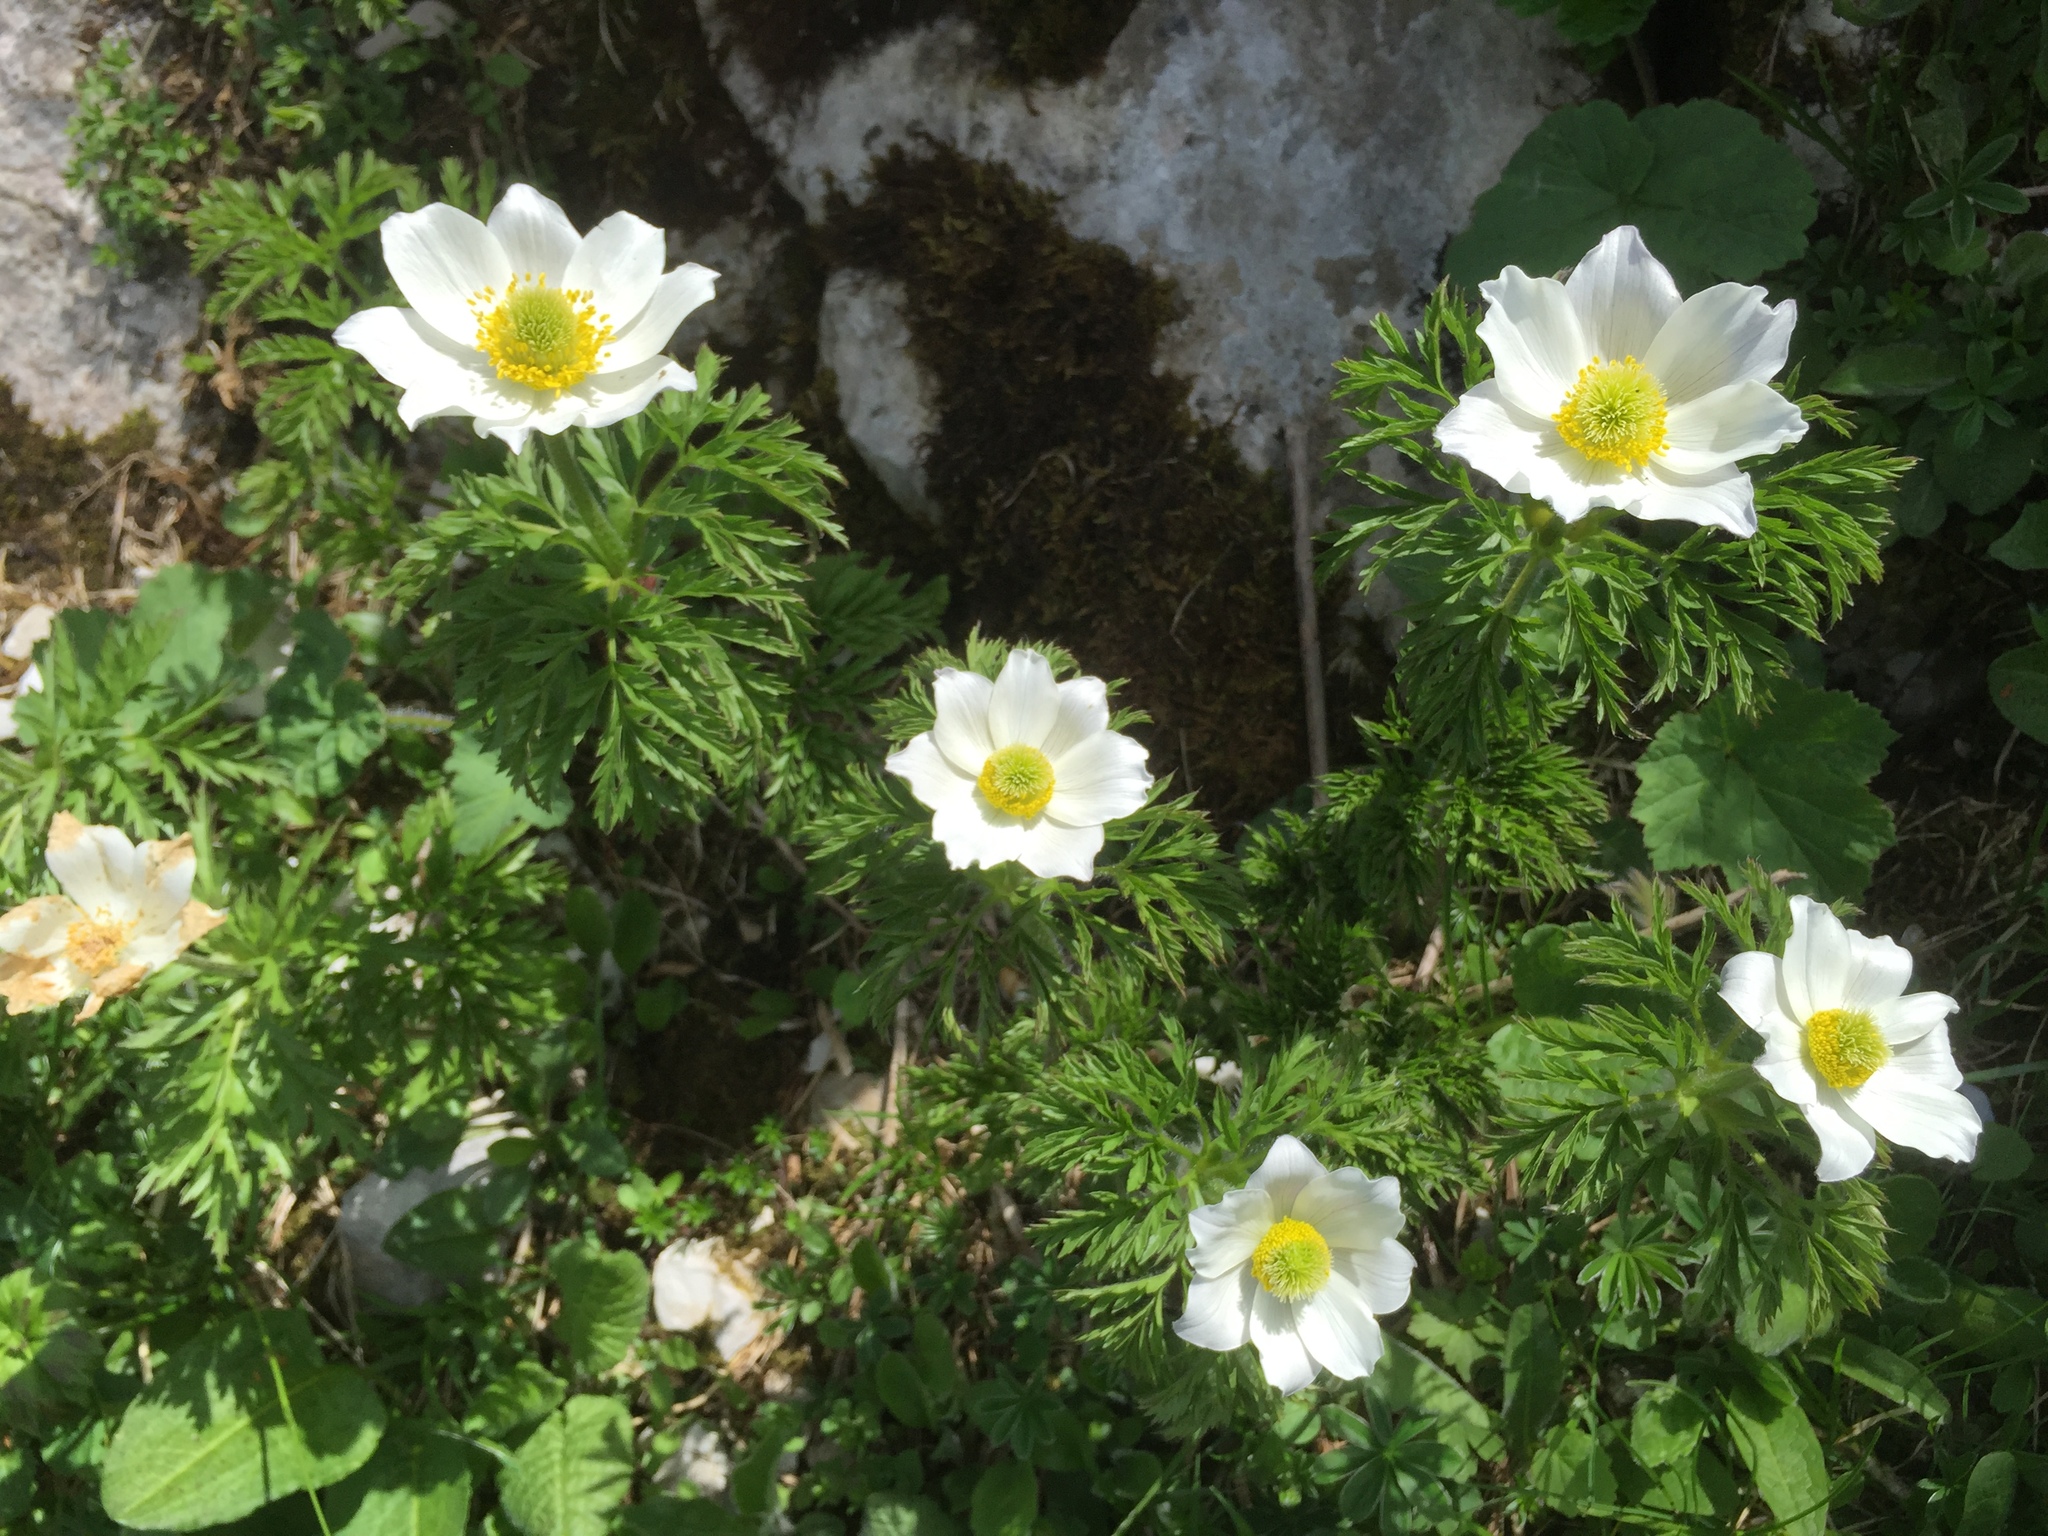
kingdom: Plantae
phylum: Tracheophyta
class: Magnoliopsida
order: Ranunculales
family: Ranunculaceae
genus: Pulsatilla
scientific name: Pulsatilla alpina
